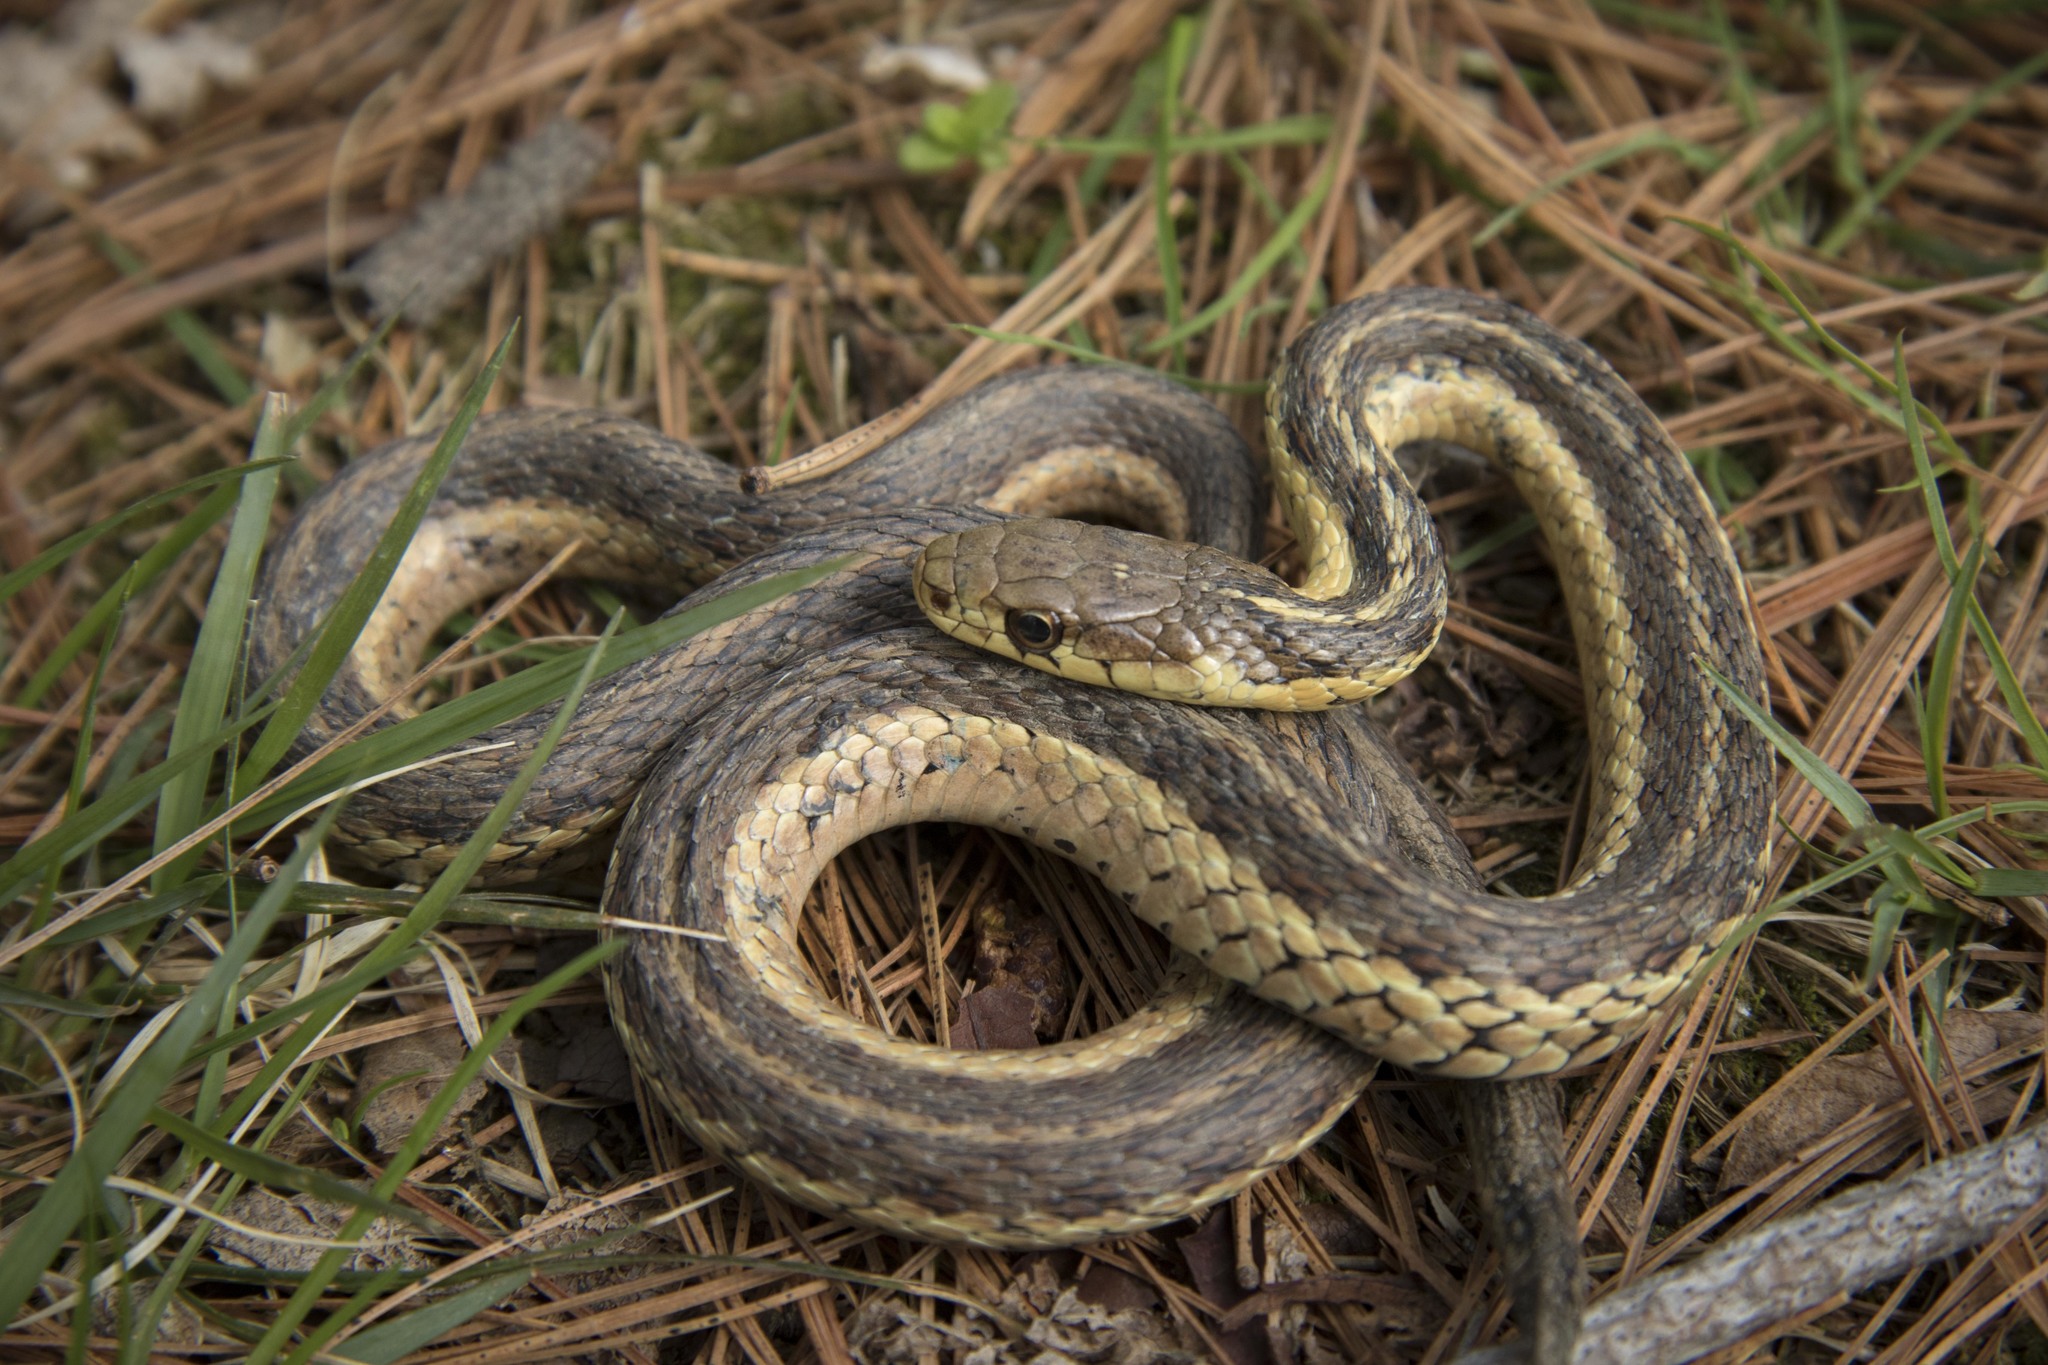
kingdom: Animalia
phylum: Chordata
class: Squamata
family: Colubridae
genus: Thamnophis
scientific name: Thamnophis sirtalis
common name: Common garter snake
